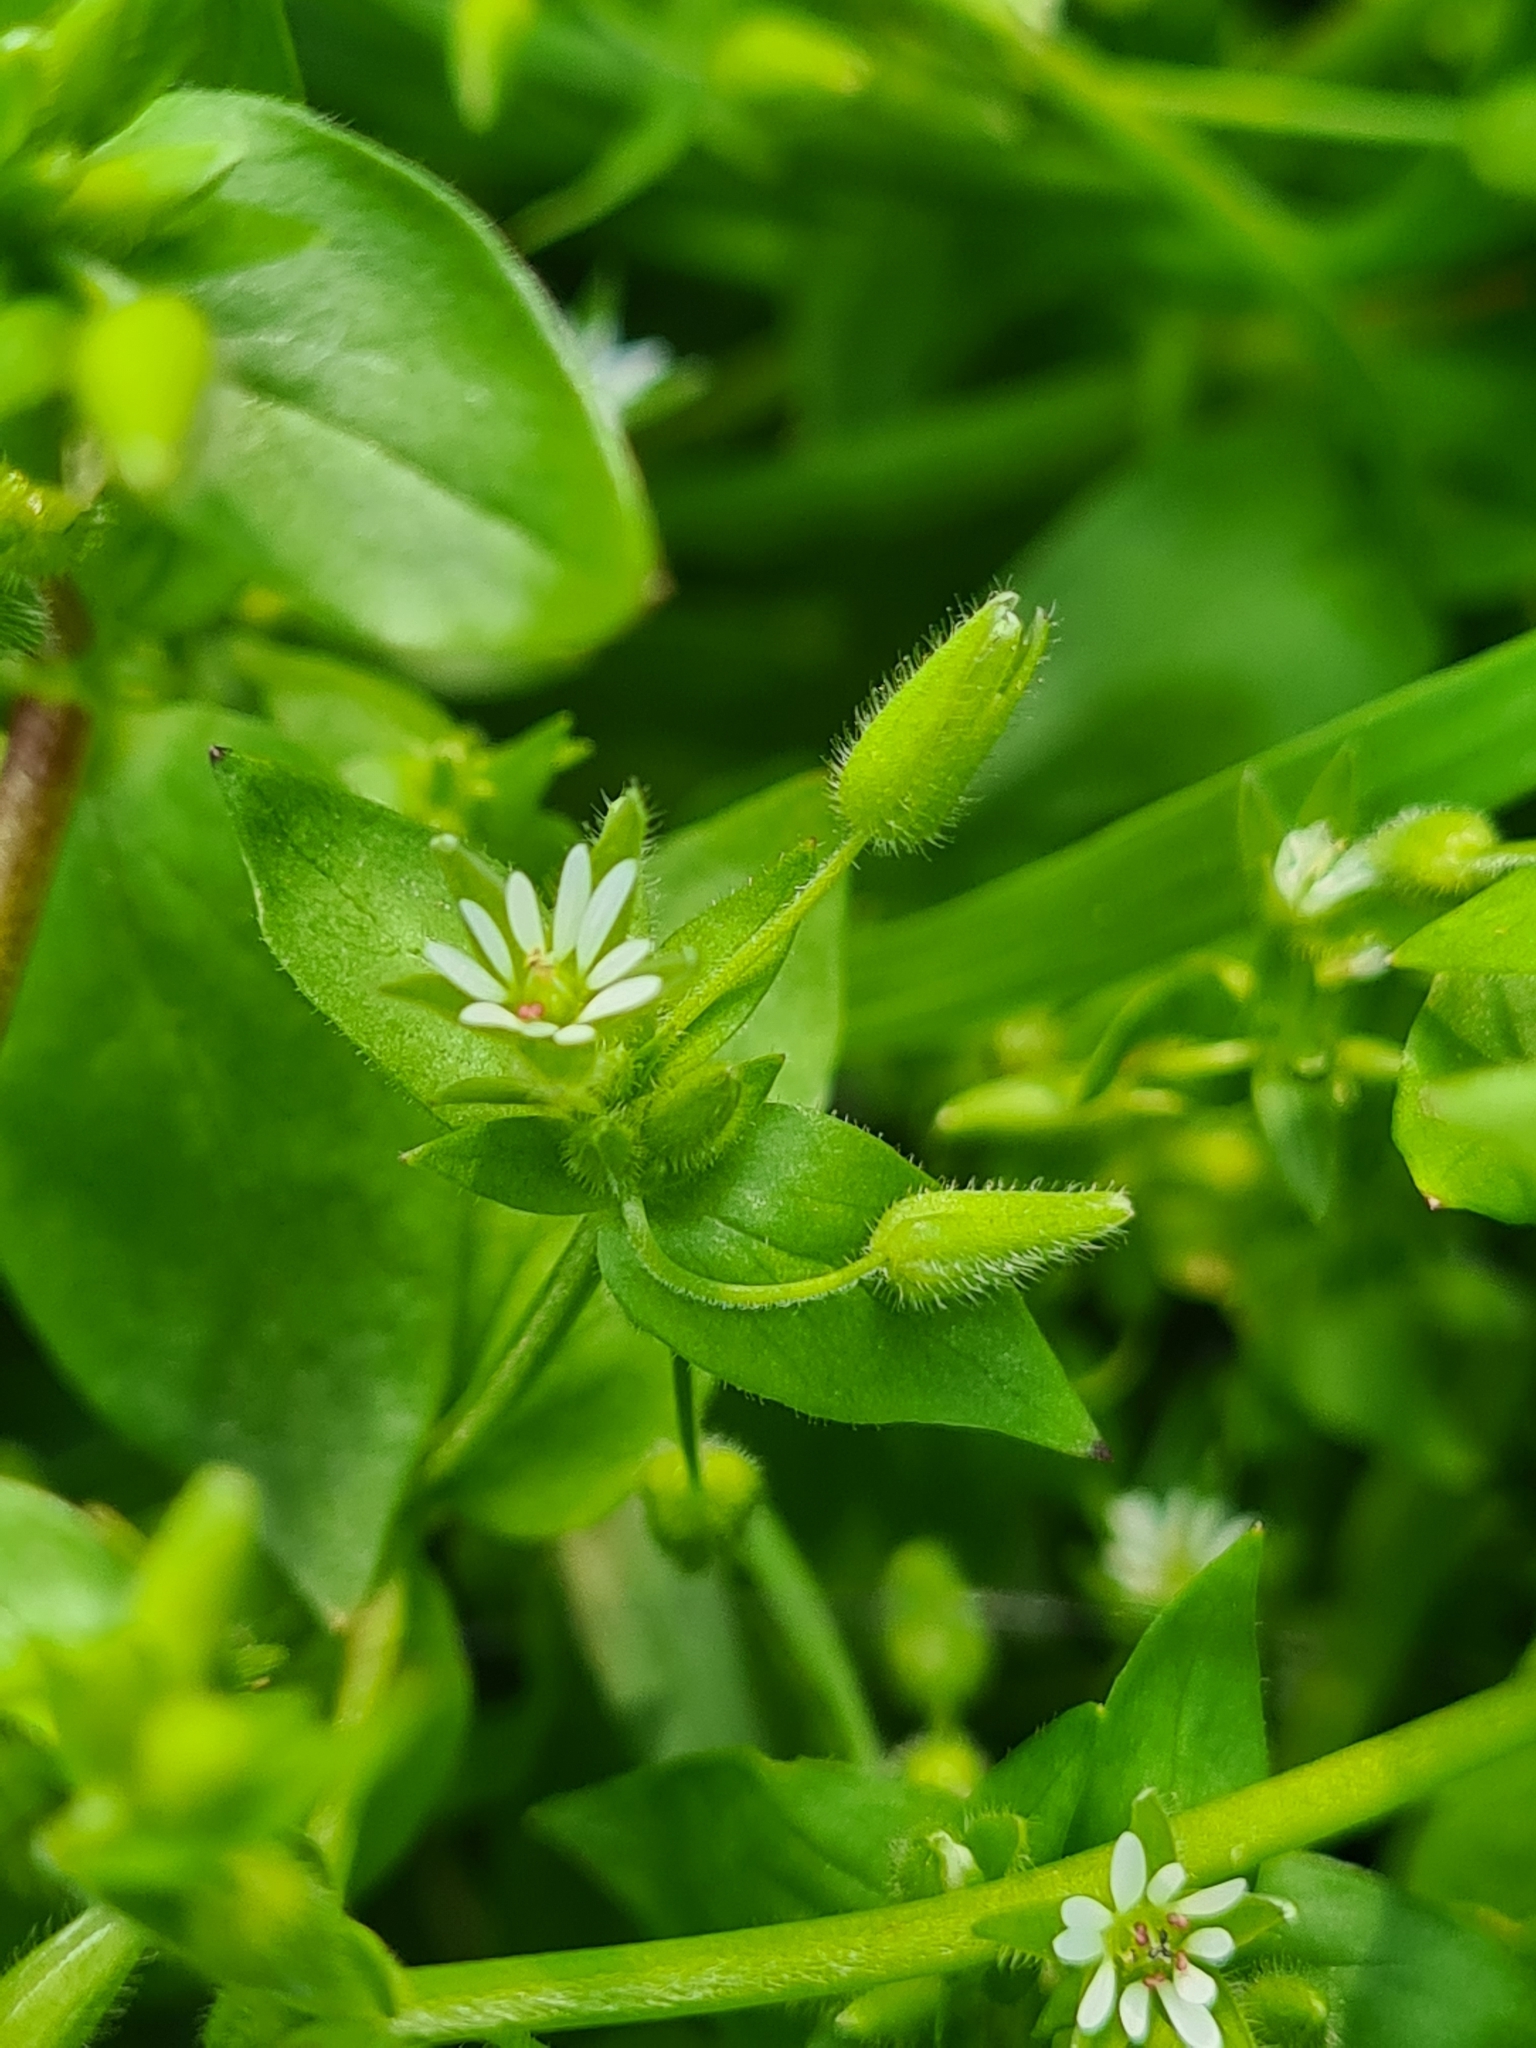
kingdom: Plantae
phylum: Tracheophyta
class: Magnoliopsida
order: Caryophyllales
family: Caryophyllaceae
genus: Stellaria
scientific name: Stellaria media
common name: Common chickweed
